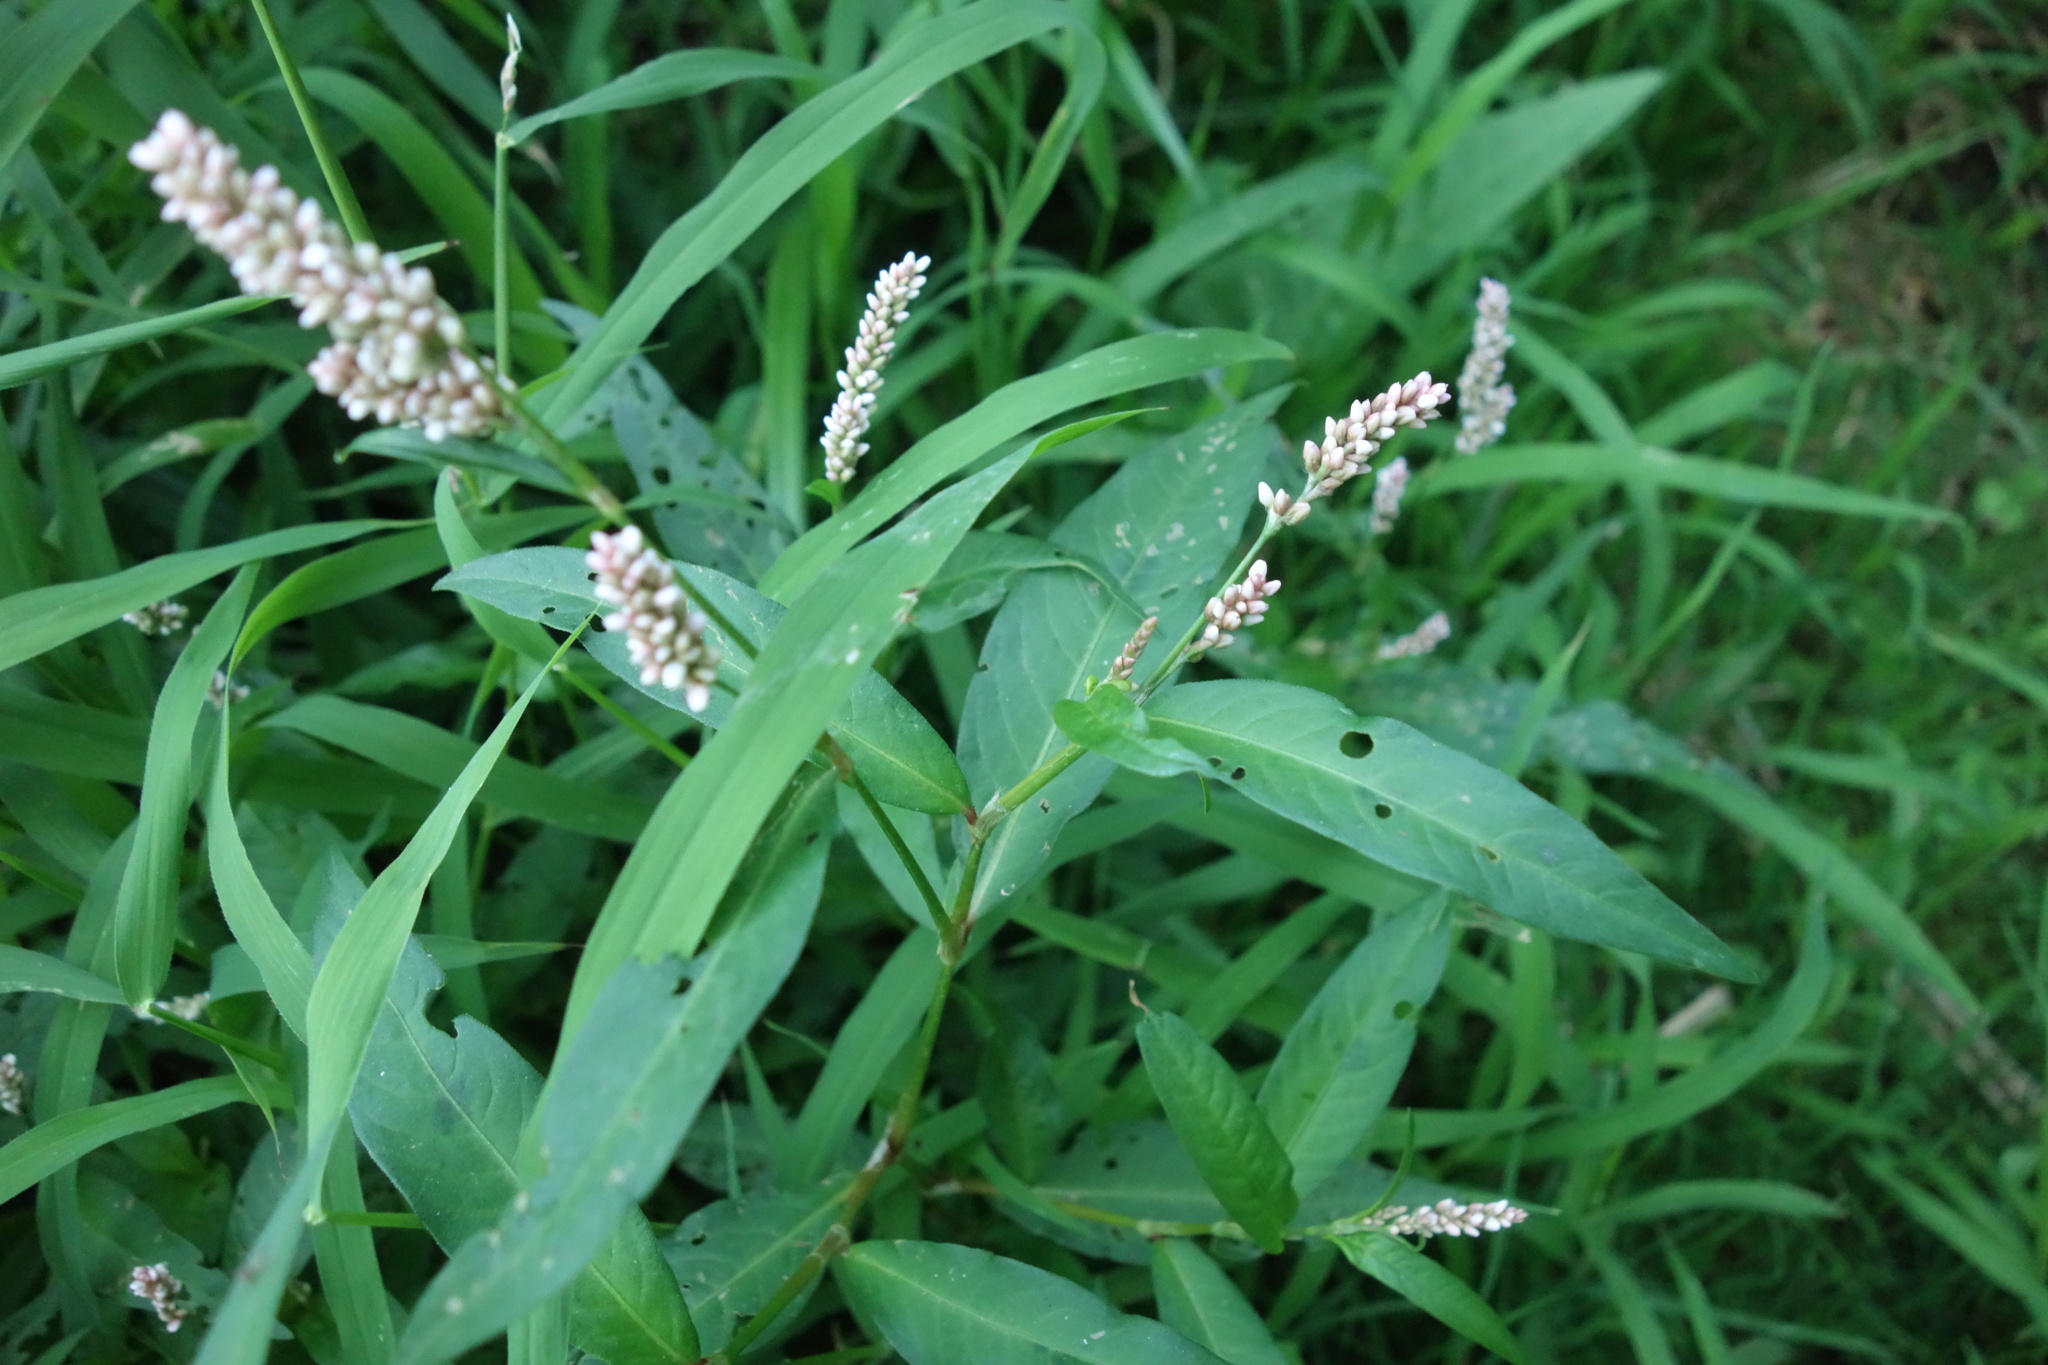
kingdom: Plantae
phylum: Tracheophyta
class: Magnoliopsida
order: Caryophyllales
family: Polygonaceae
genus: Persicaria
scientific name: Persicaria maculosa
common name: Redshank
